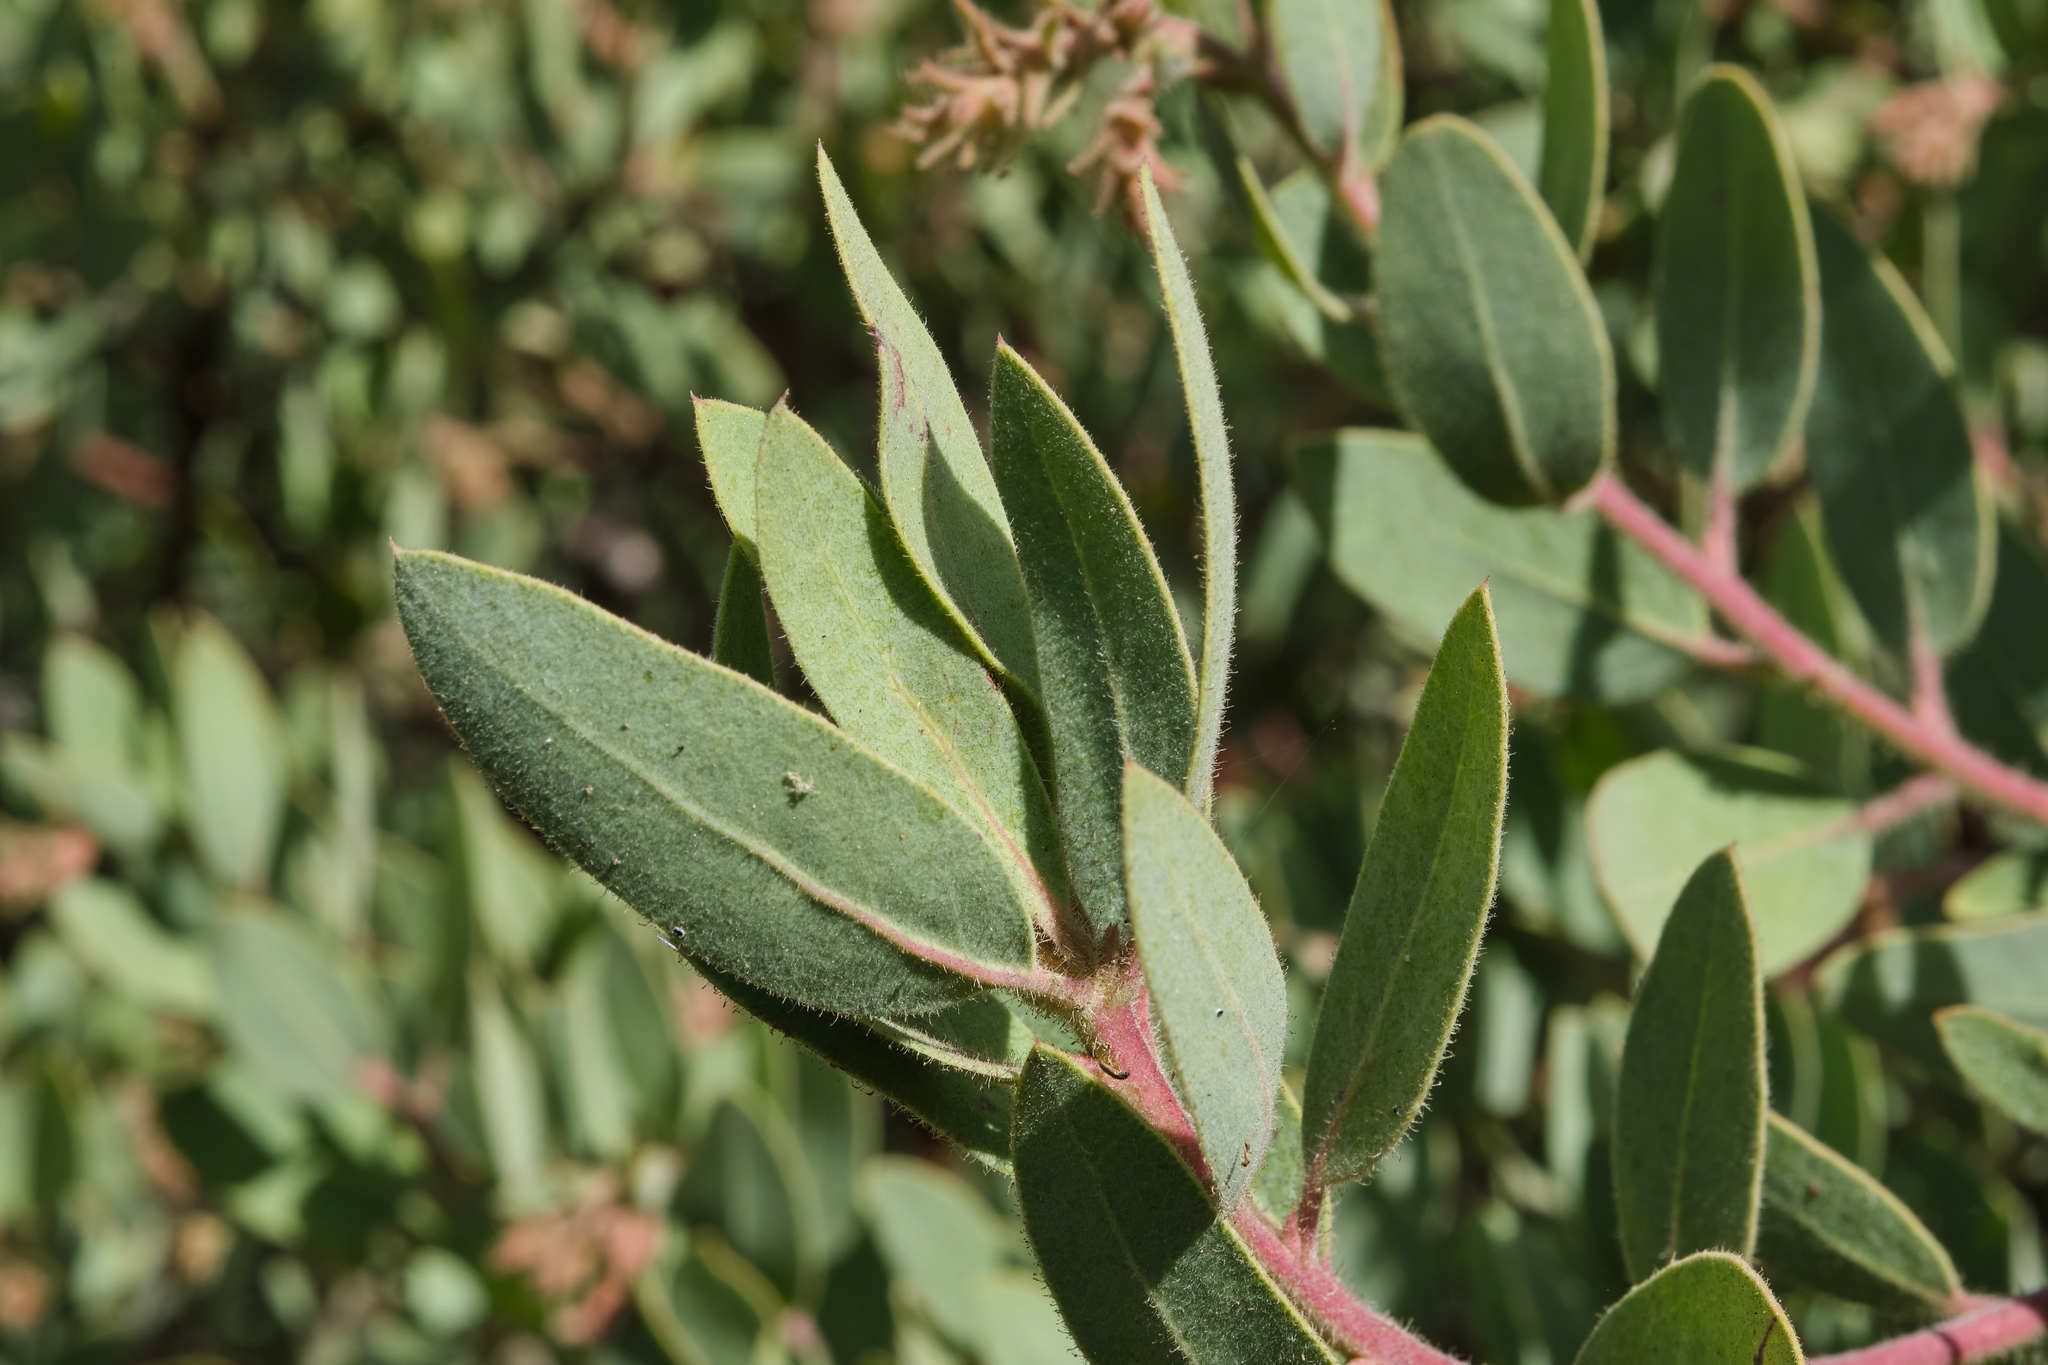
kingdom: Plantae
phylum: Tracheophyta
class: Magnoliopsida
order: Ericales
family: Ericaceae
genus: Arctostaphylos
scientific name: Arctostaphylos glandulosa
